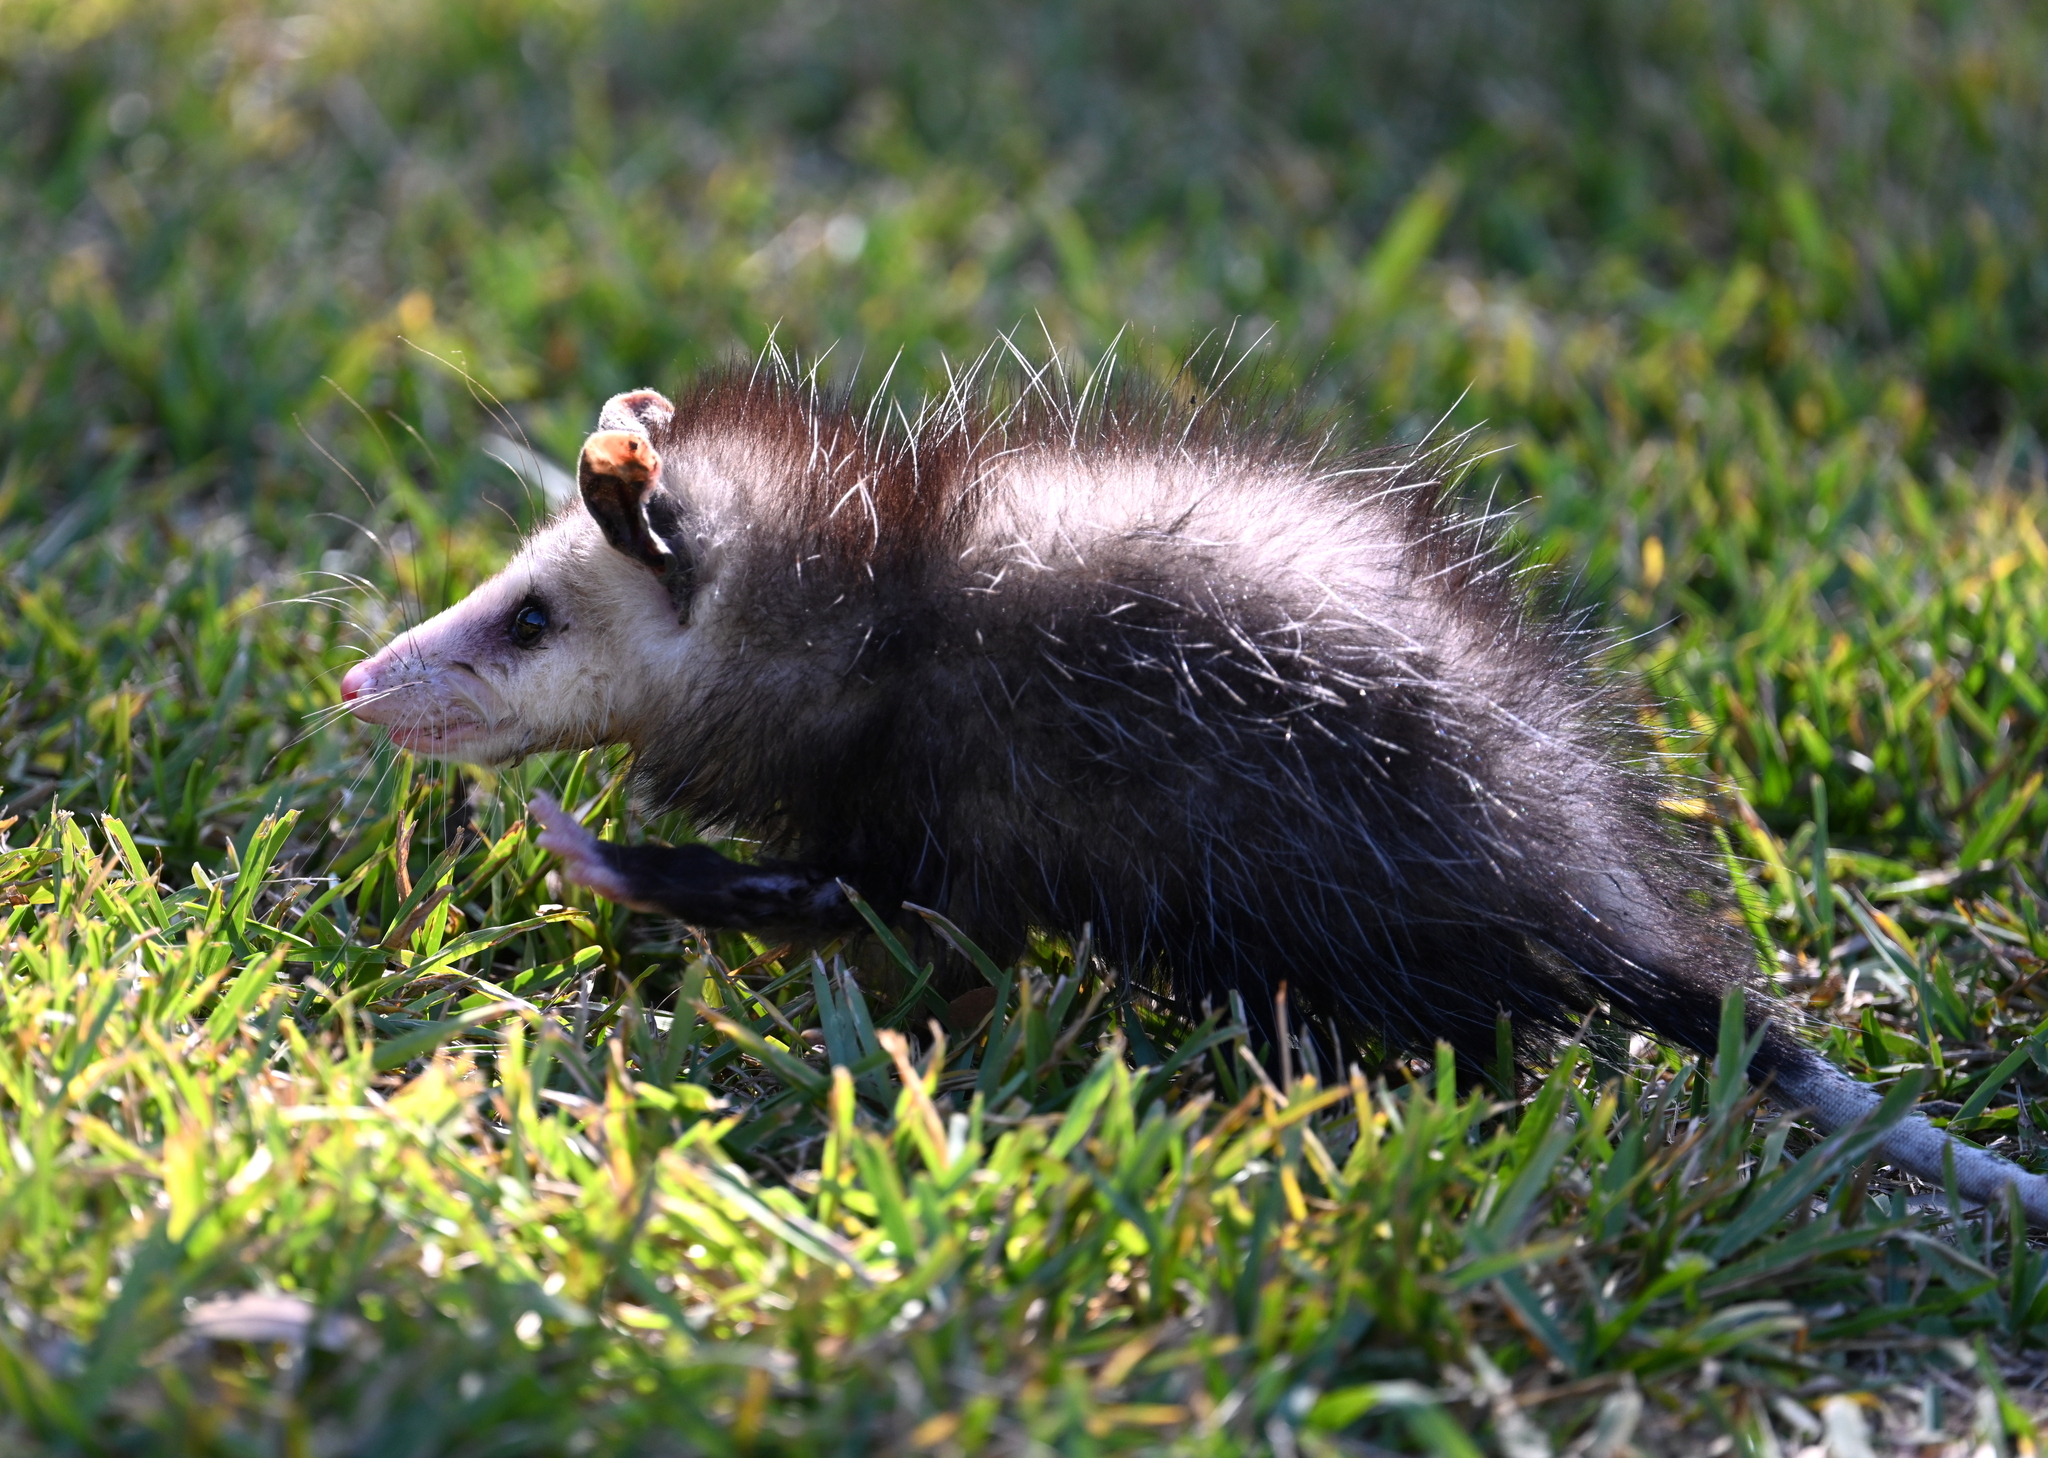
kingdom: Animalia
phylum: Chordata
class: Mammalia
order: Didelphimorphia
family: Didelphidae
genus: Didelphis
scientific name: Didelphis virginiana
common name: Virginia opossum
